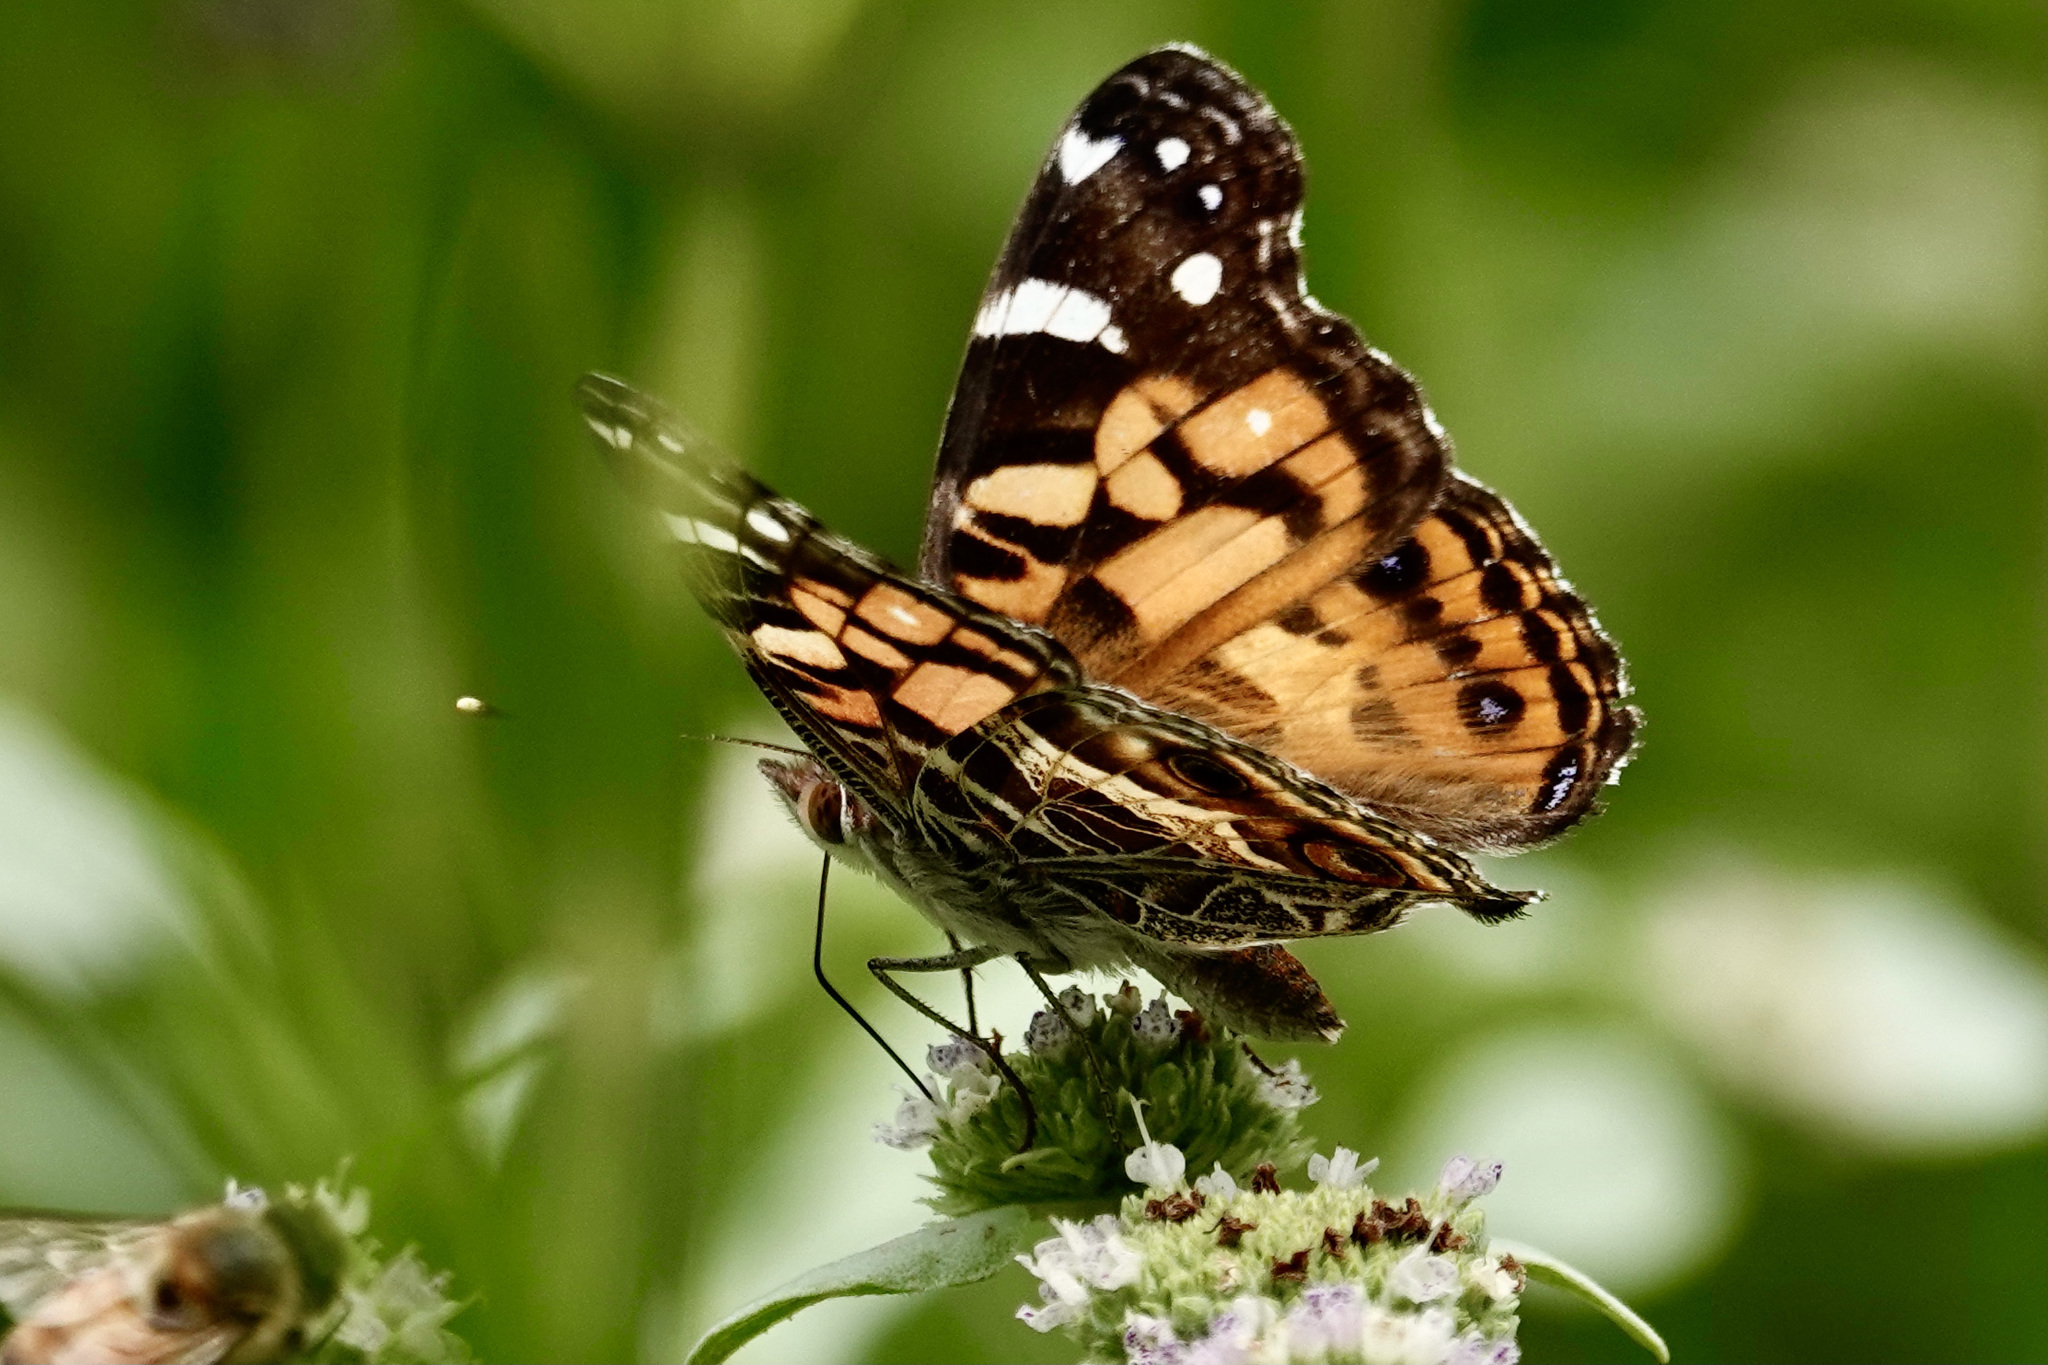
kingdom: Animalia
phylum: Arthropoda
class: Insecta
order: Lepidoptera
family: Nymphalidae
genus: Vanessa
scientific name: Vanessa virginiensis
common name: American lady
